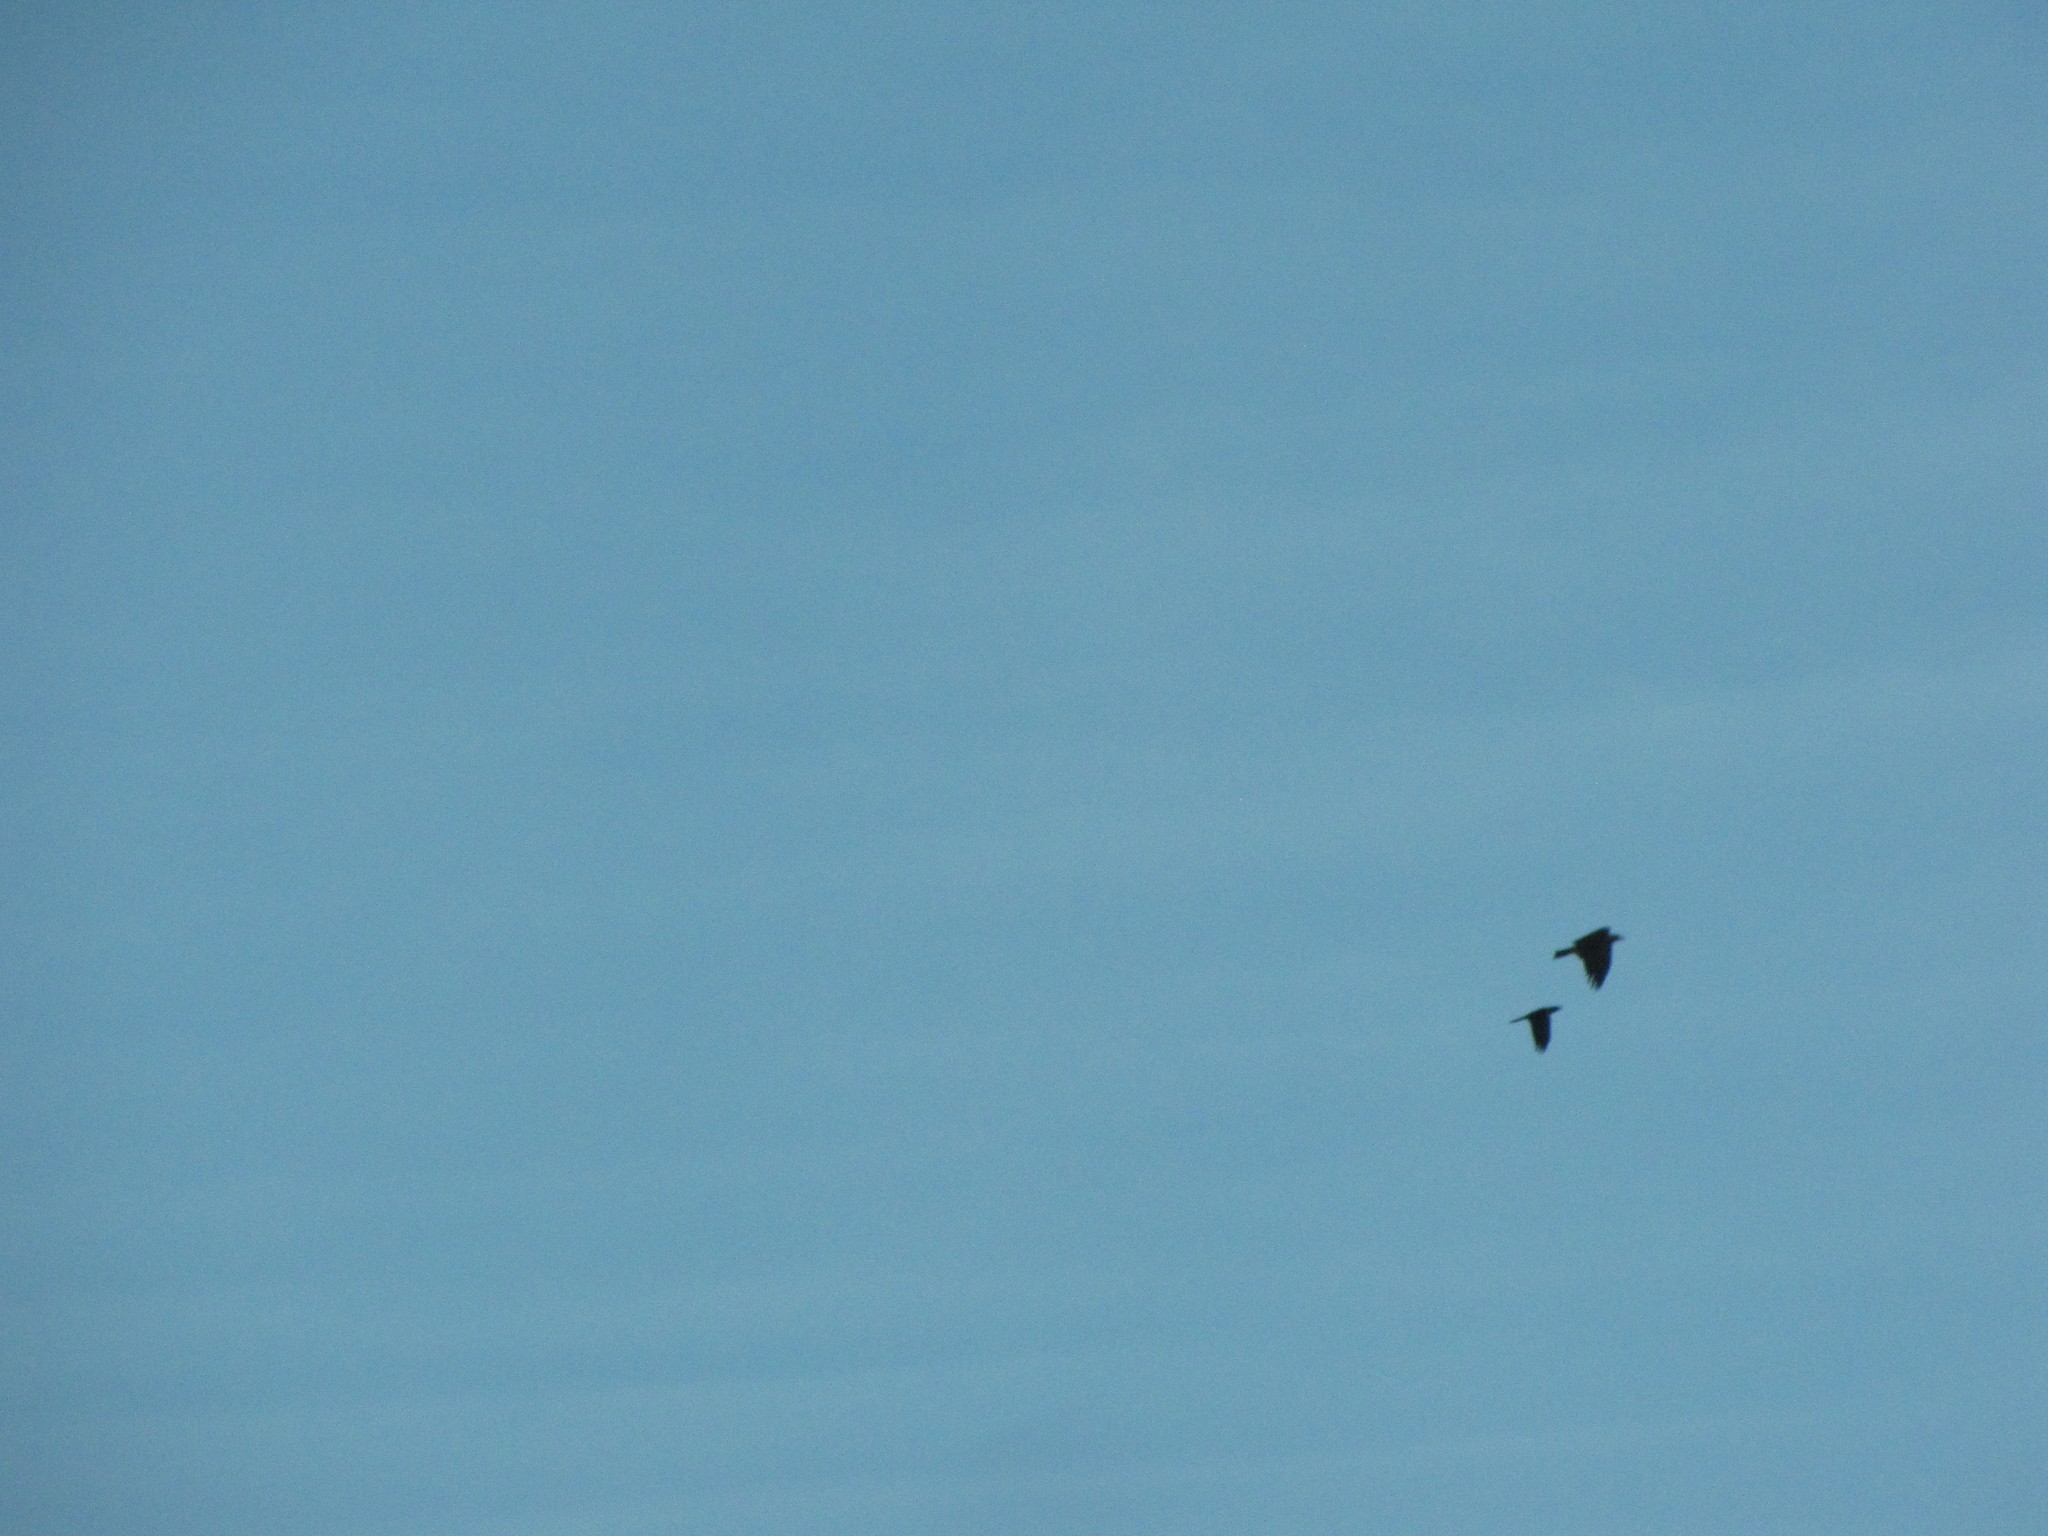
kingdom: Animalia
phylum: Chordata
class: Aves
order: Passeriformes
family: Corvidae
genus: Corvus
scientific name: Corvus corax
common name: Common raven
